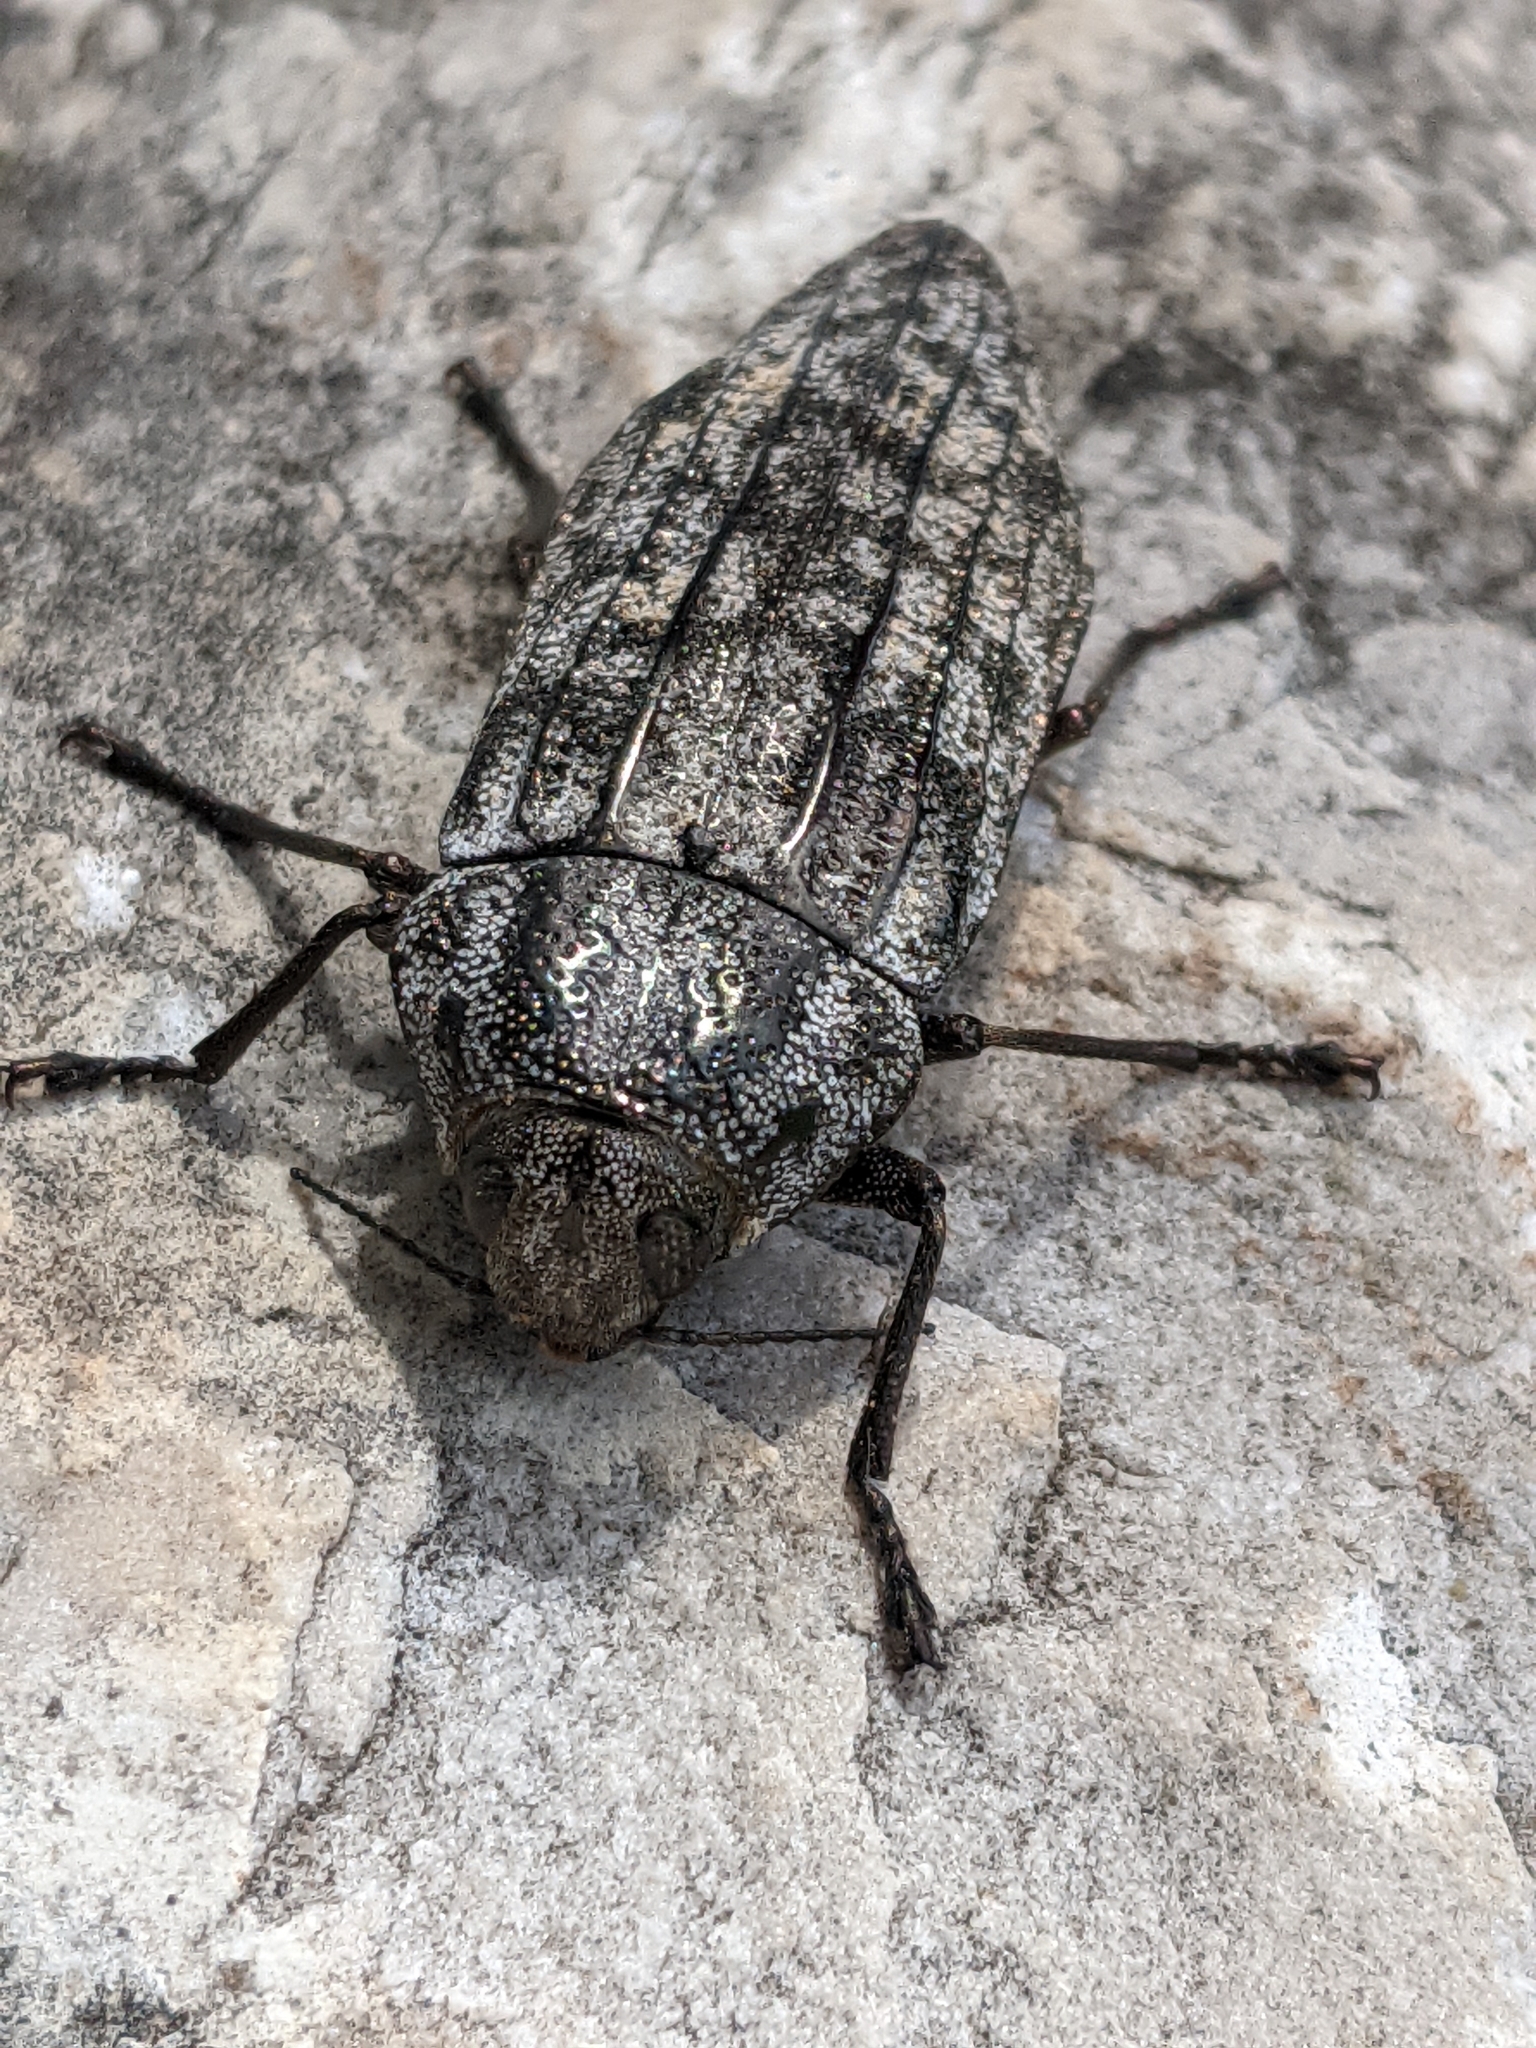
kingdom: Animalia
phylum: Arthropoda
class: Insecta
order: Coleoptera
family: Buprestidae
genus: Polycesta
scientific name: Polycesta elata
